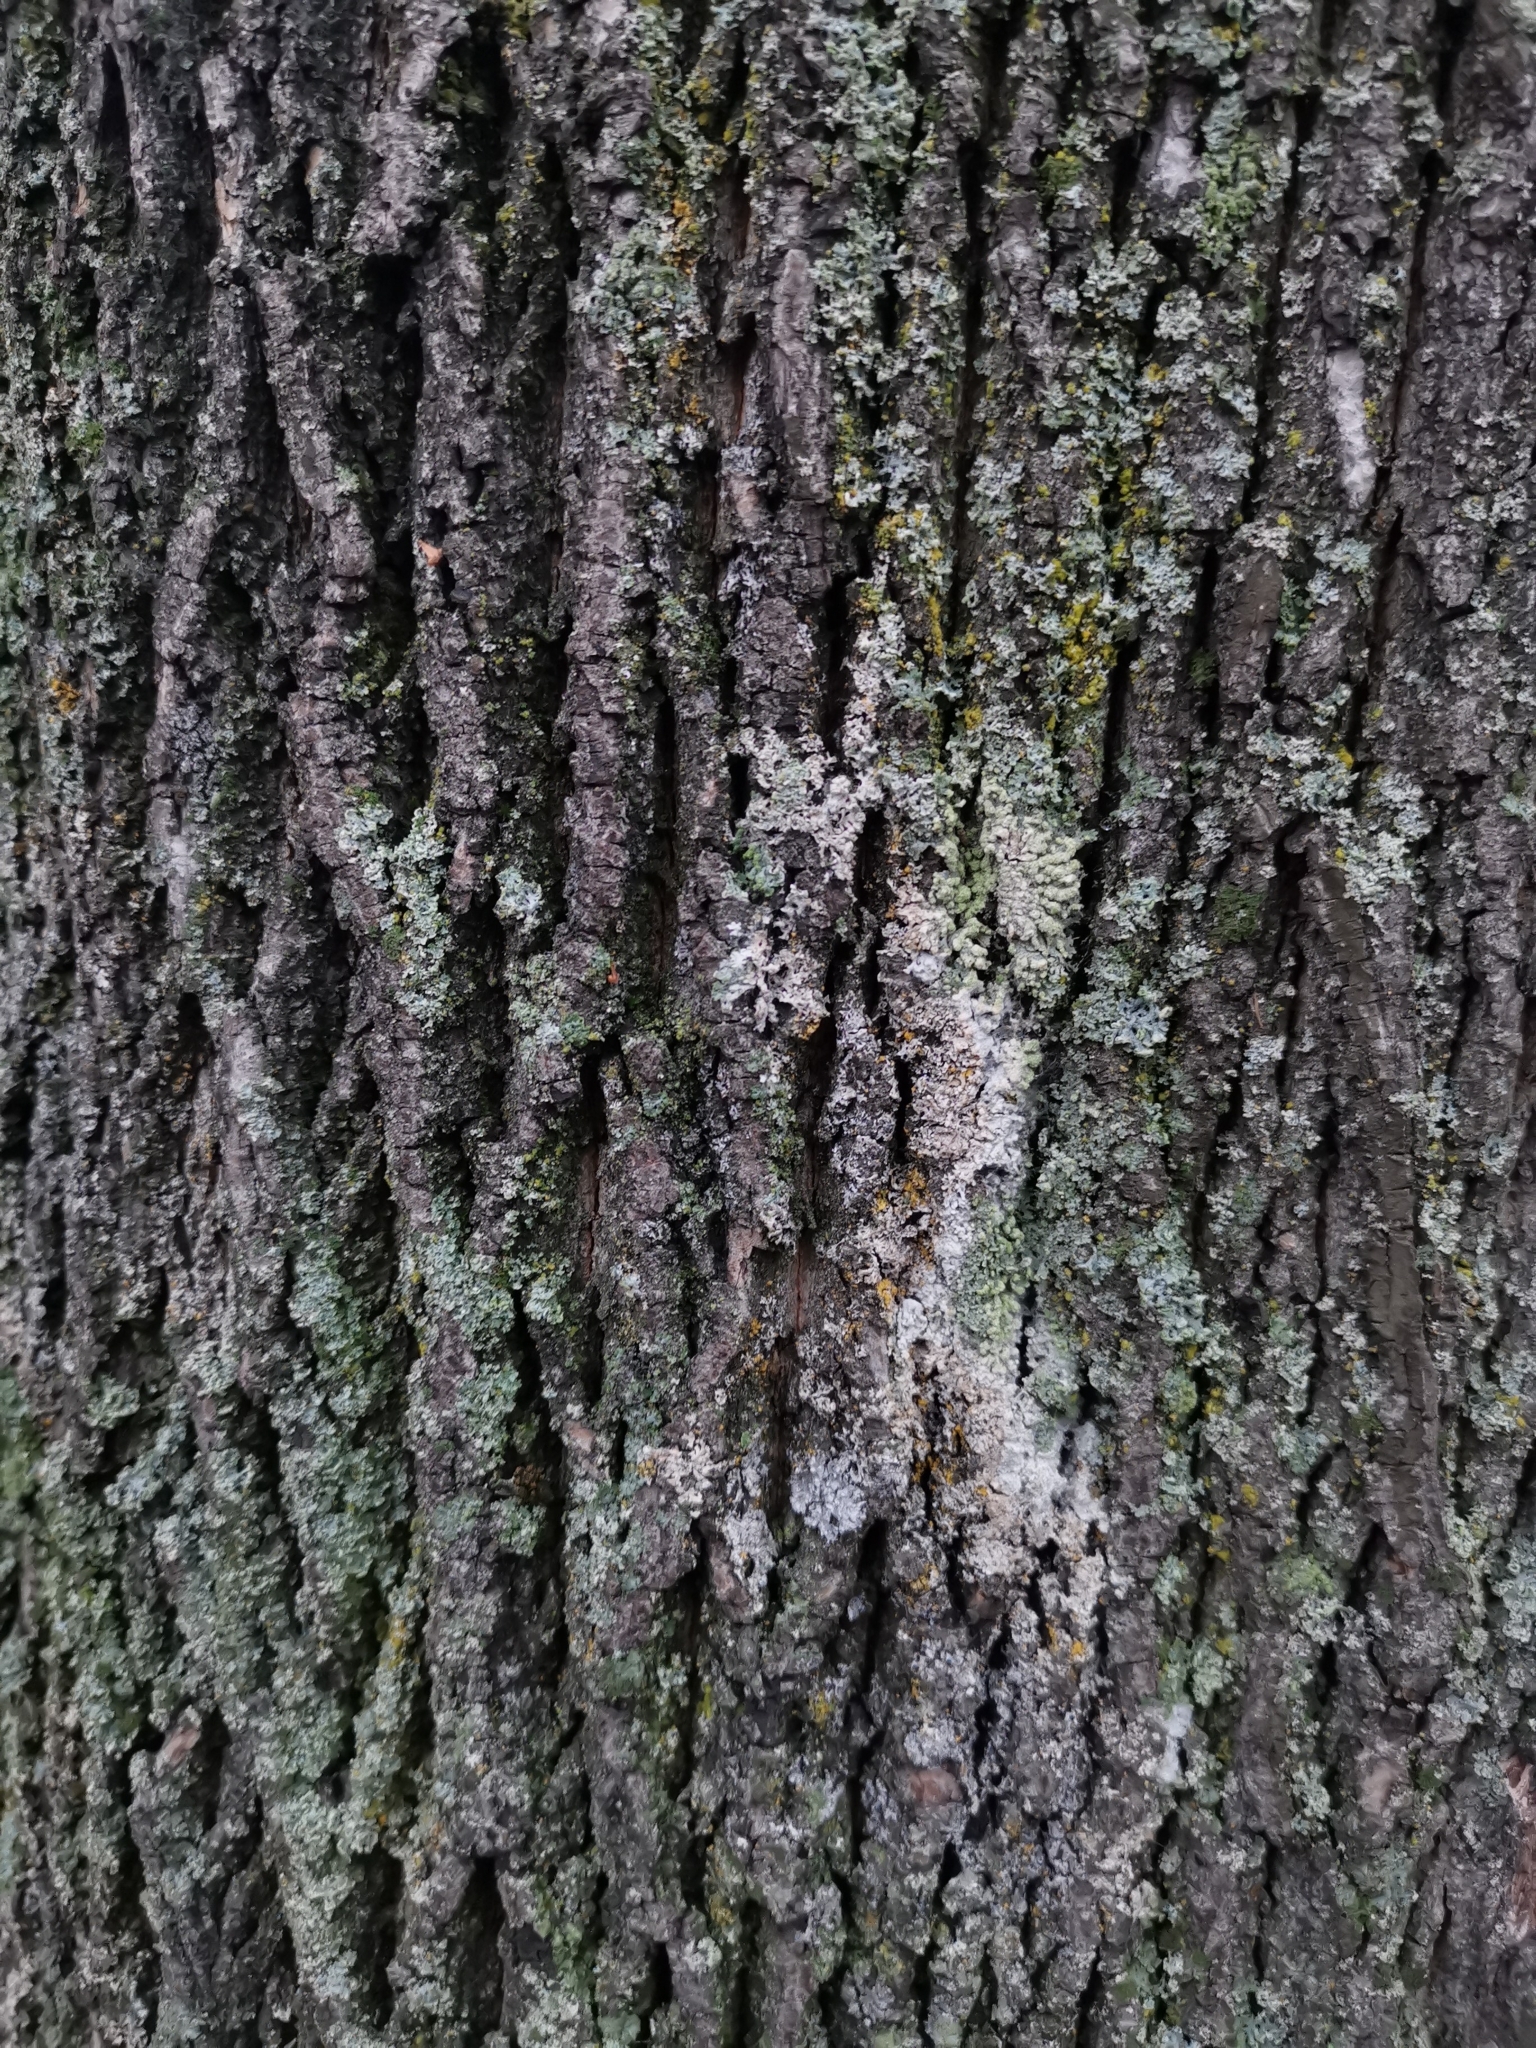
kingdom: Fungi
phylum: Basidiomycota
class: Agaricomycetes
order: Atheliales
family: Atheliaceae
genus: Athelia
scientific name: Athelia arachnoidea
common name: Candelabra duster
